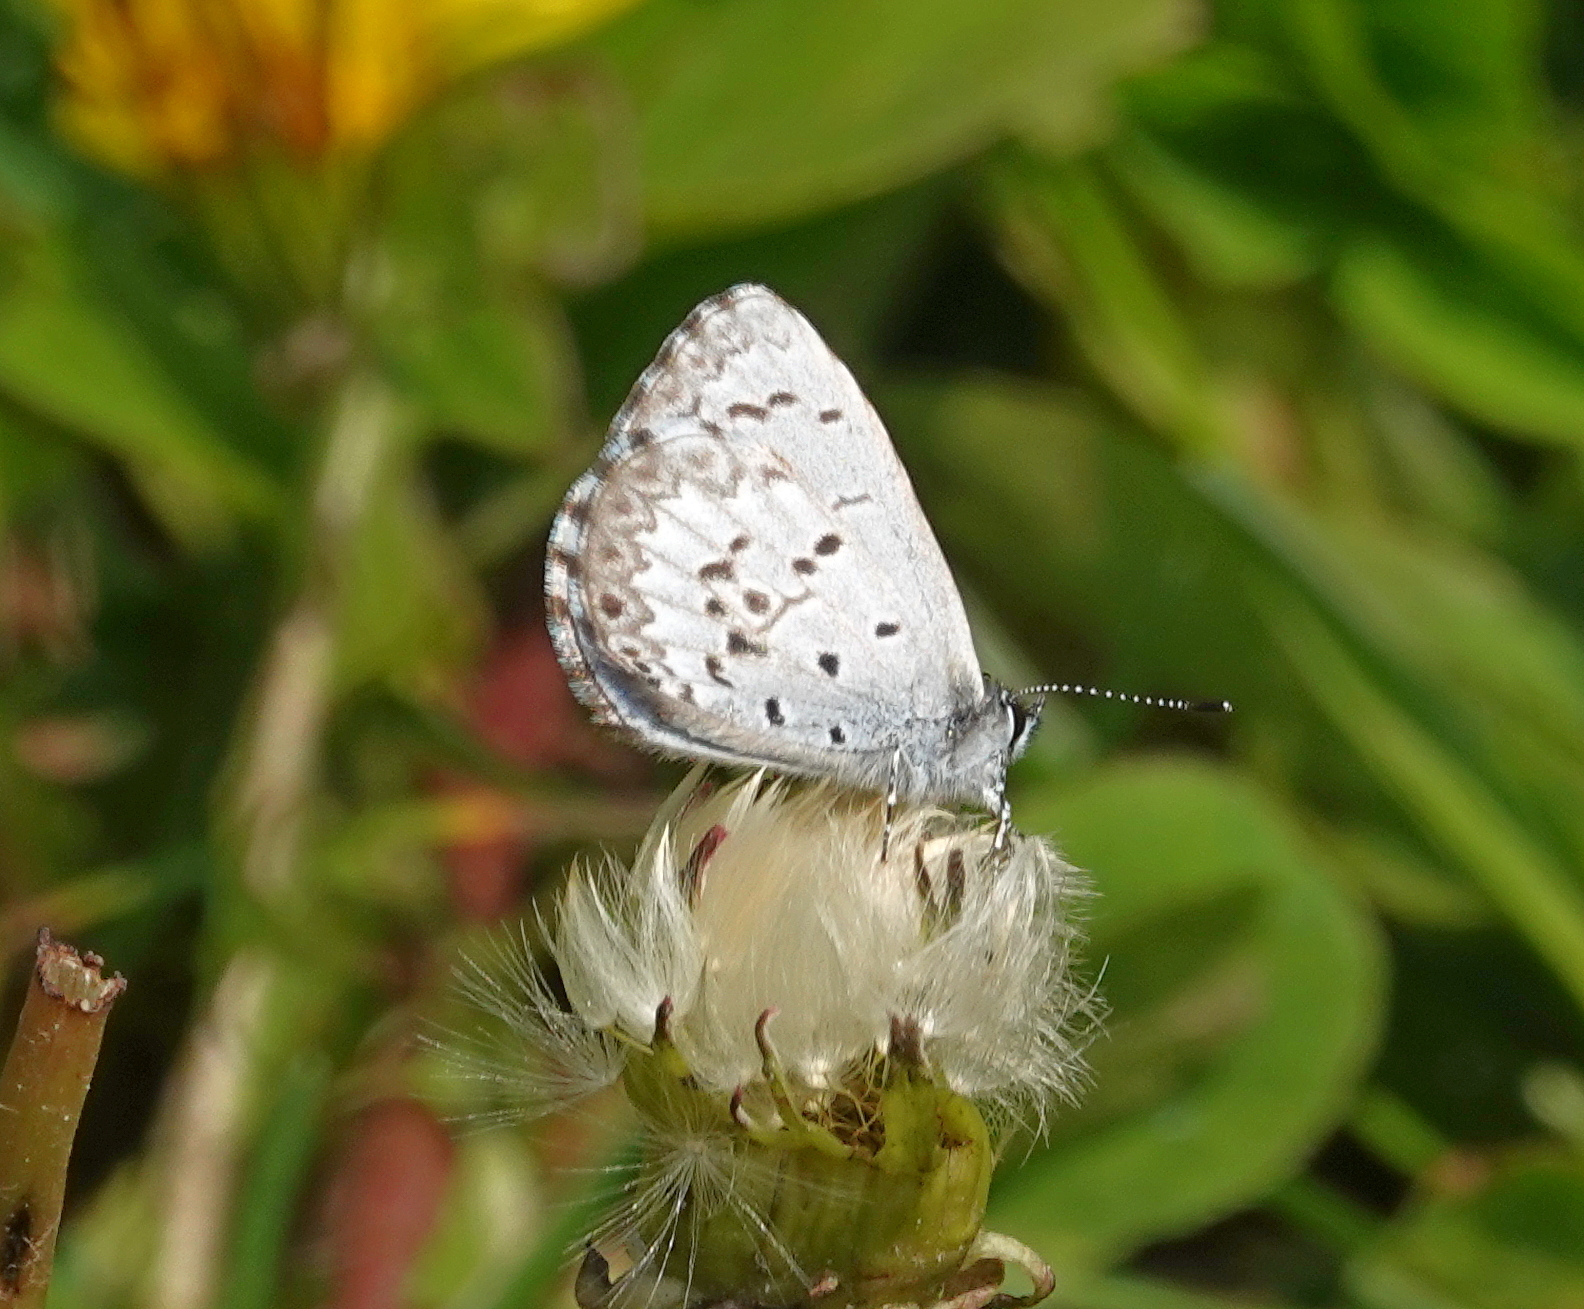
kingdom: Animalia
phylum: Arthropoda
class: Insecta
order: Lepidoptera
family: Lycaenidae
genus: Celastrina
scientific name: Celastrina lucia
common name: Lucia azure
